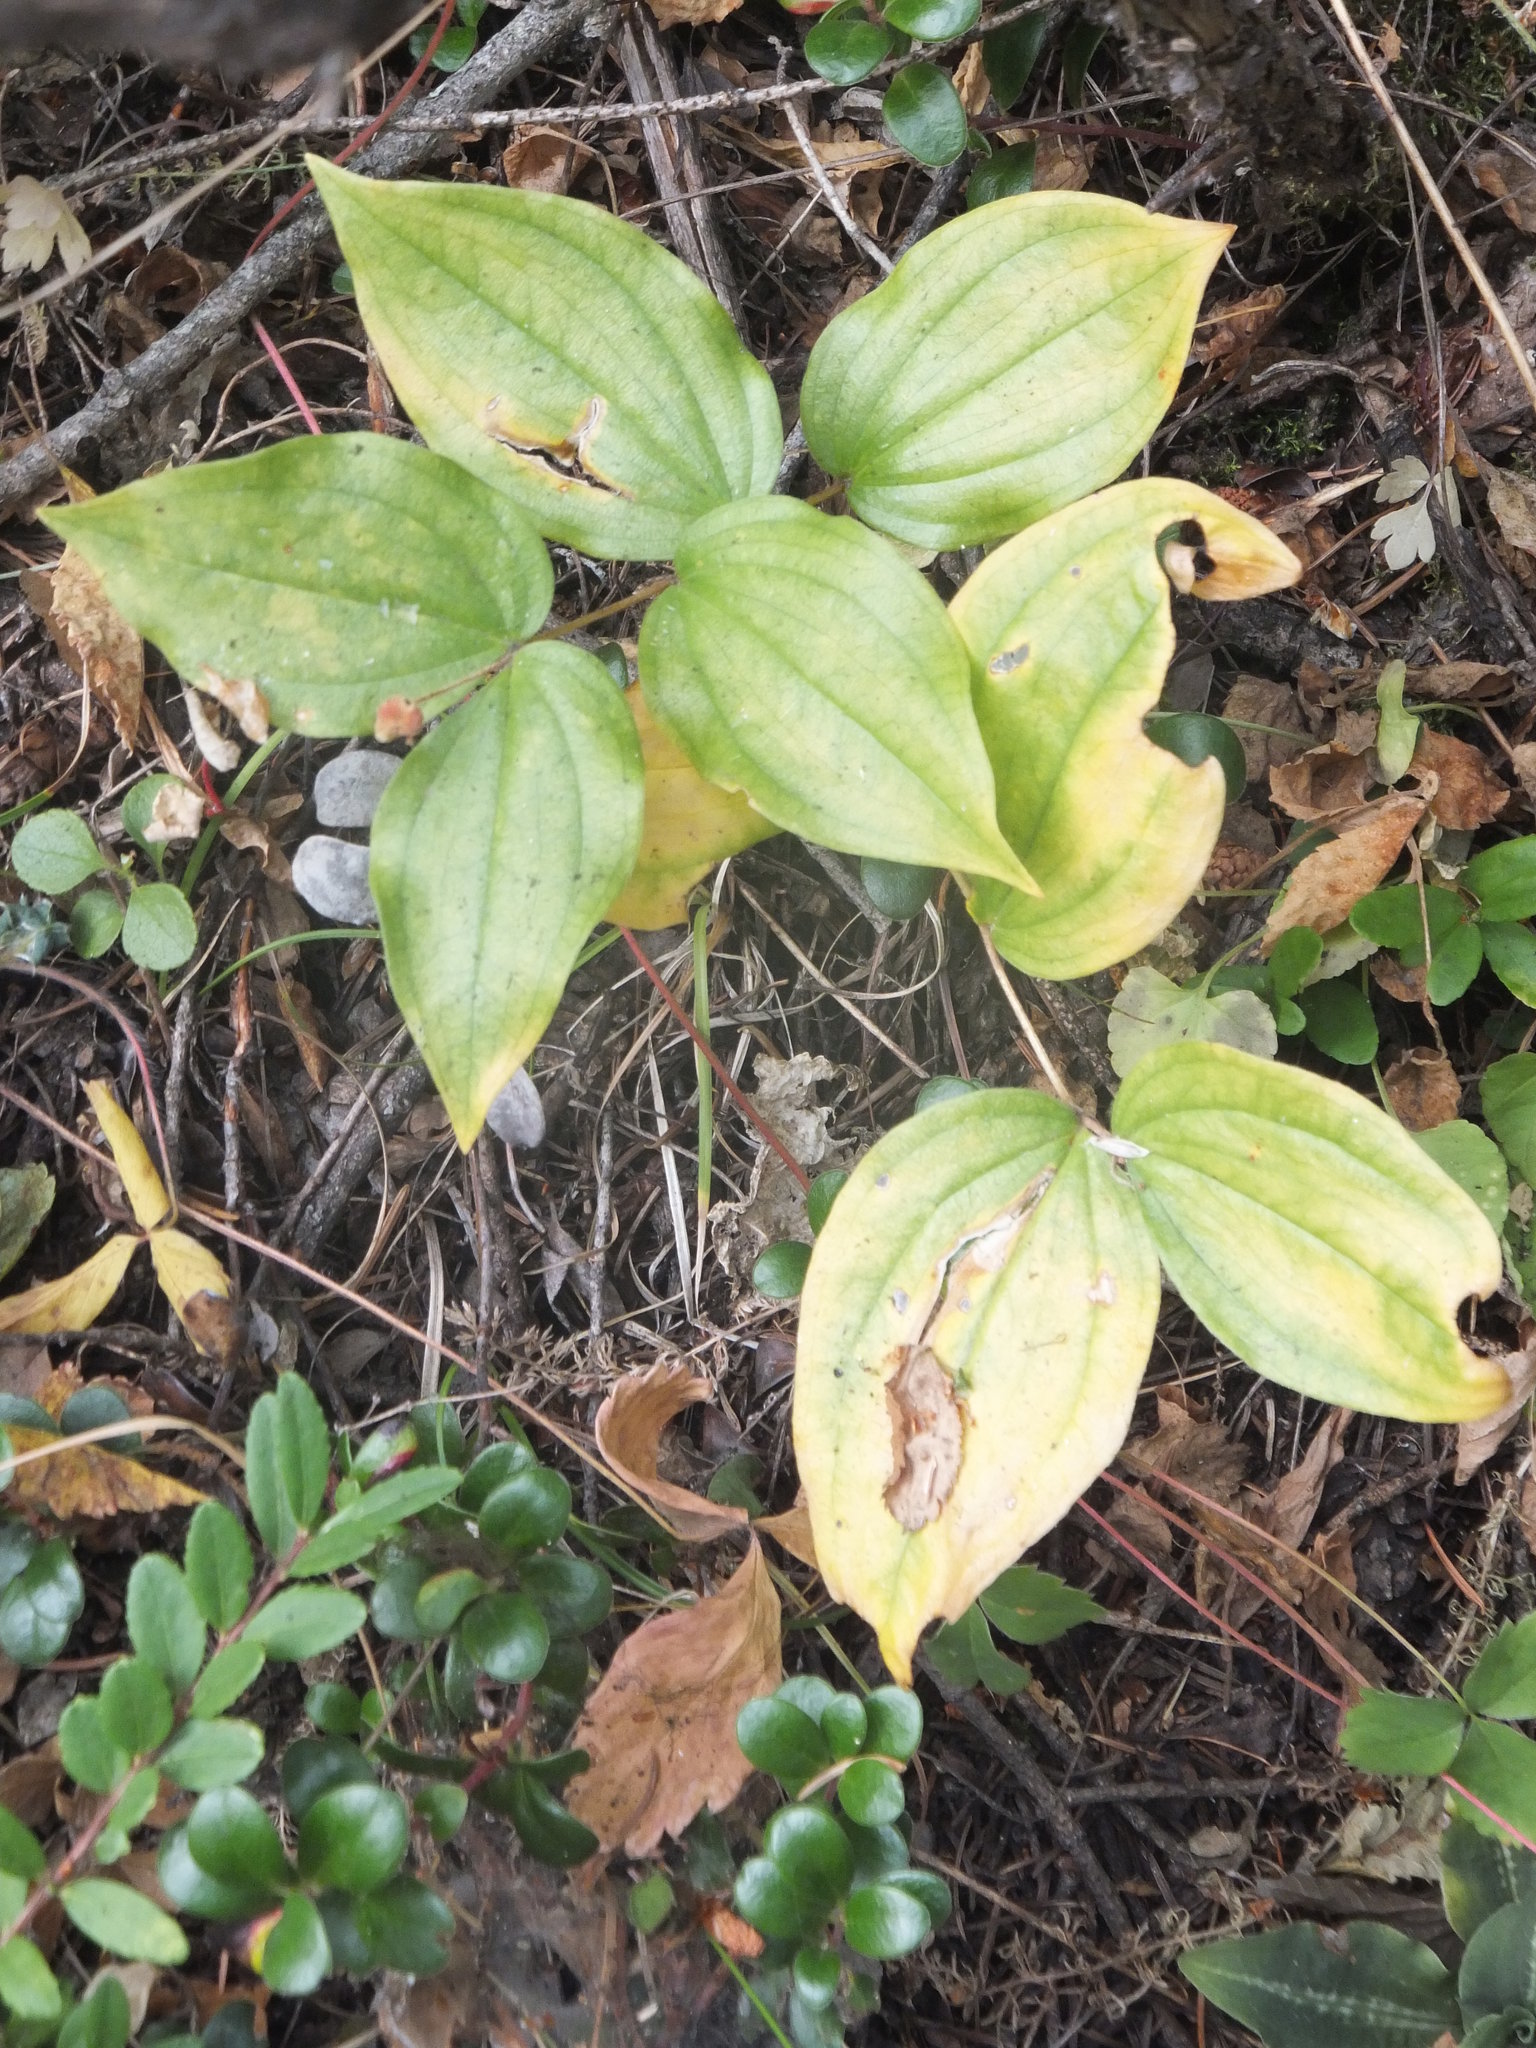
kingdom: Plantae
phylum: Tracheophyta
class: Liliopsida
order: Liliales
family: Liliaceae
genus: Prosartes
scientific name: Prosartes trachycarpa
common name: Rough-fruit fairy-bells
